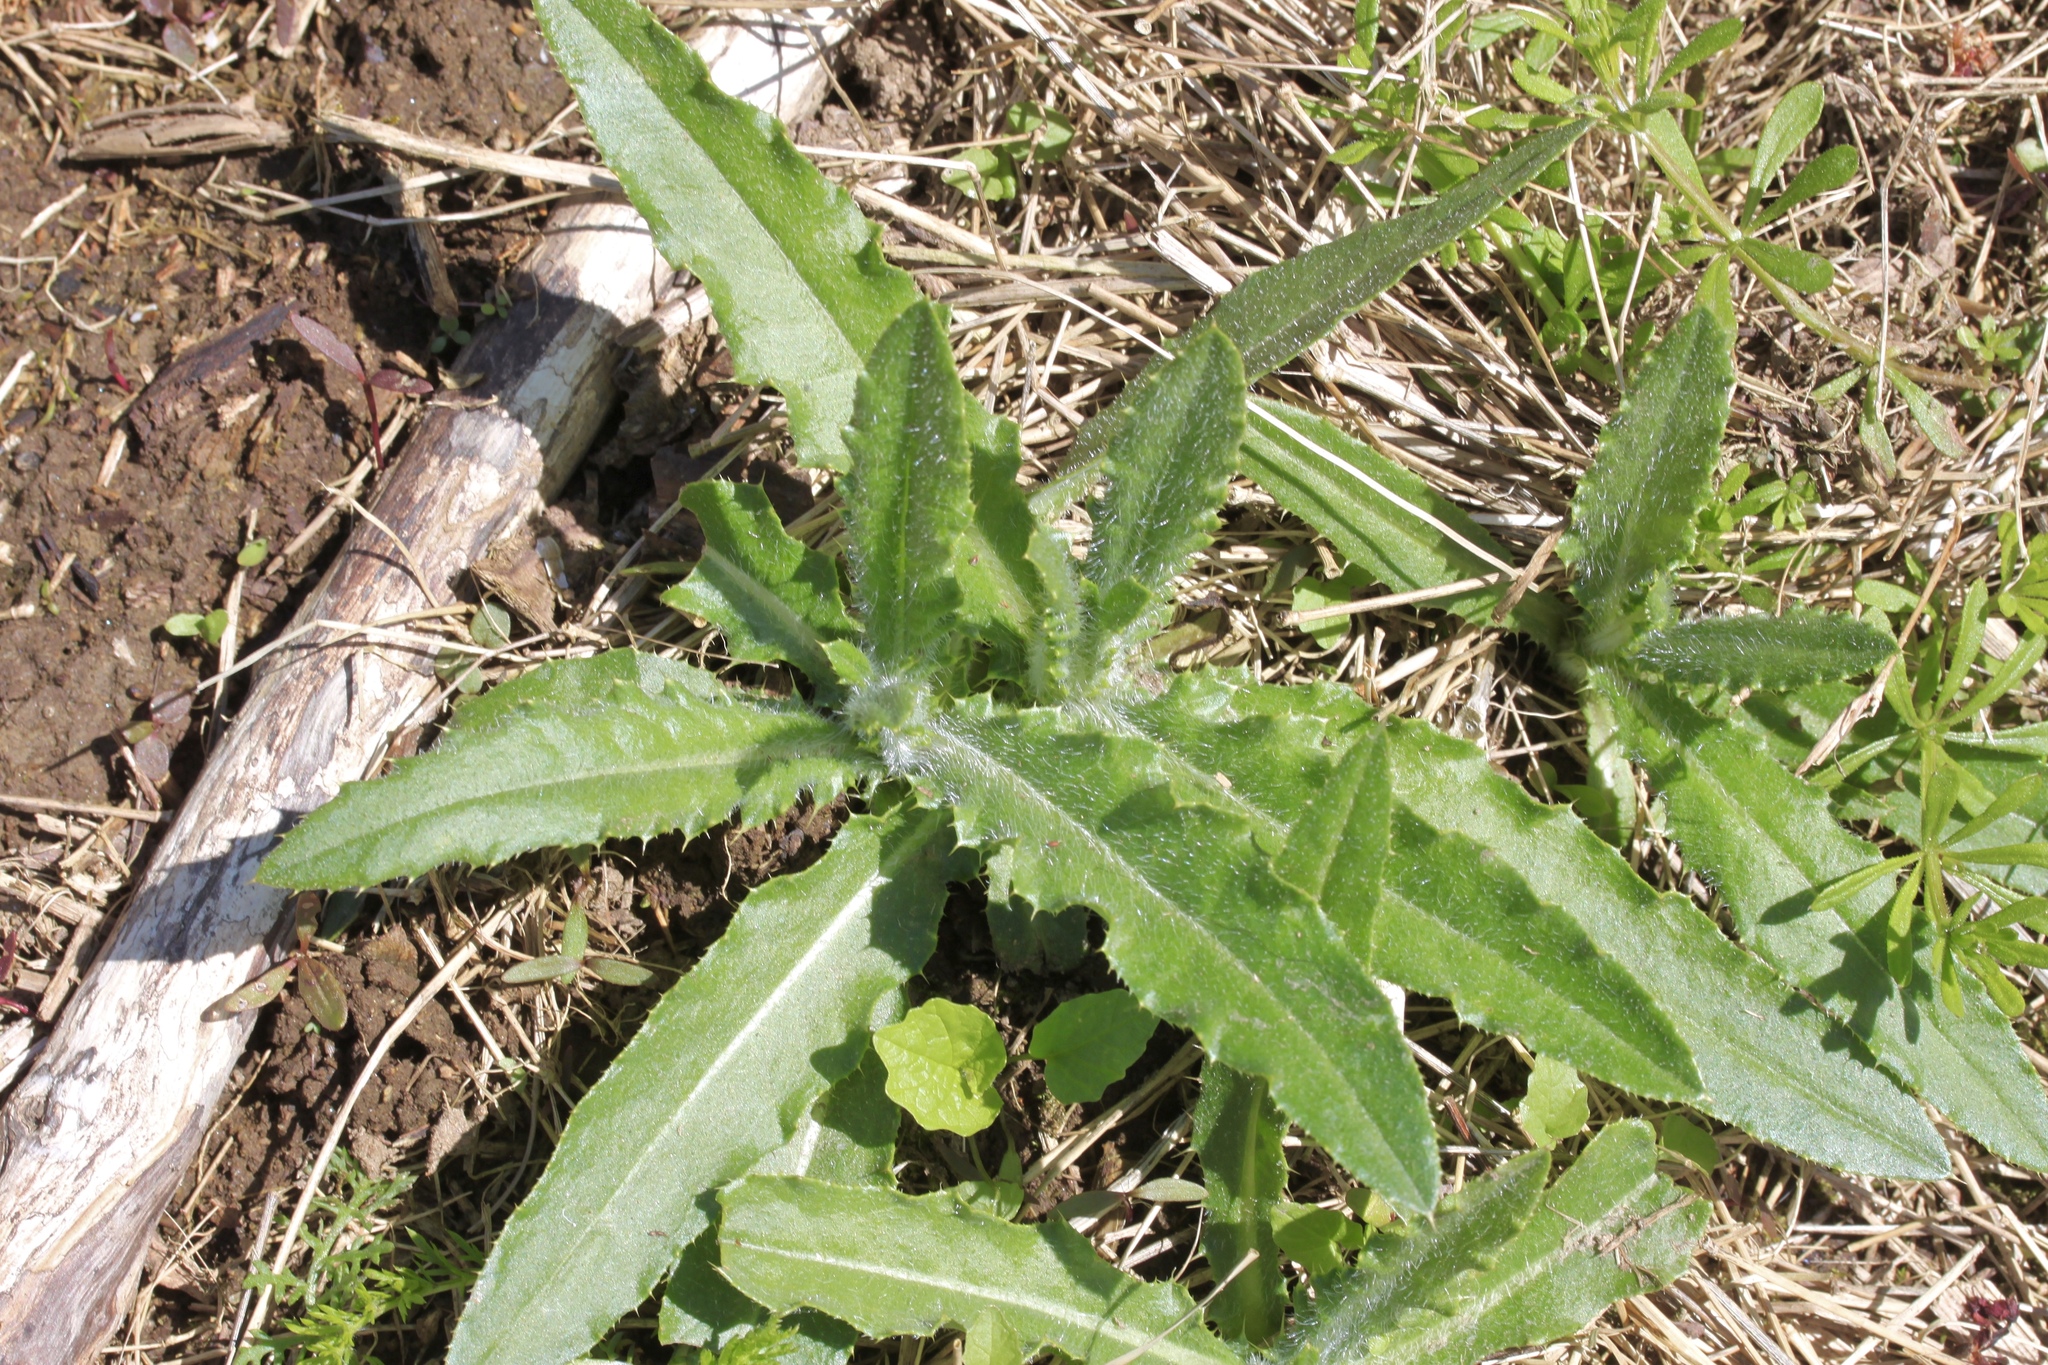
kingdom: Plantae
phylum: Tracheophyta
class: Magnoliopsida
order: Asterales
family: Asteraceae
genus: Cirsium
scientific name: Cirsium arvense
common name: Creeping thistle
